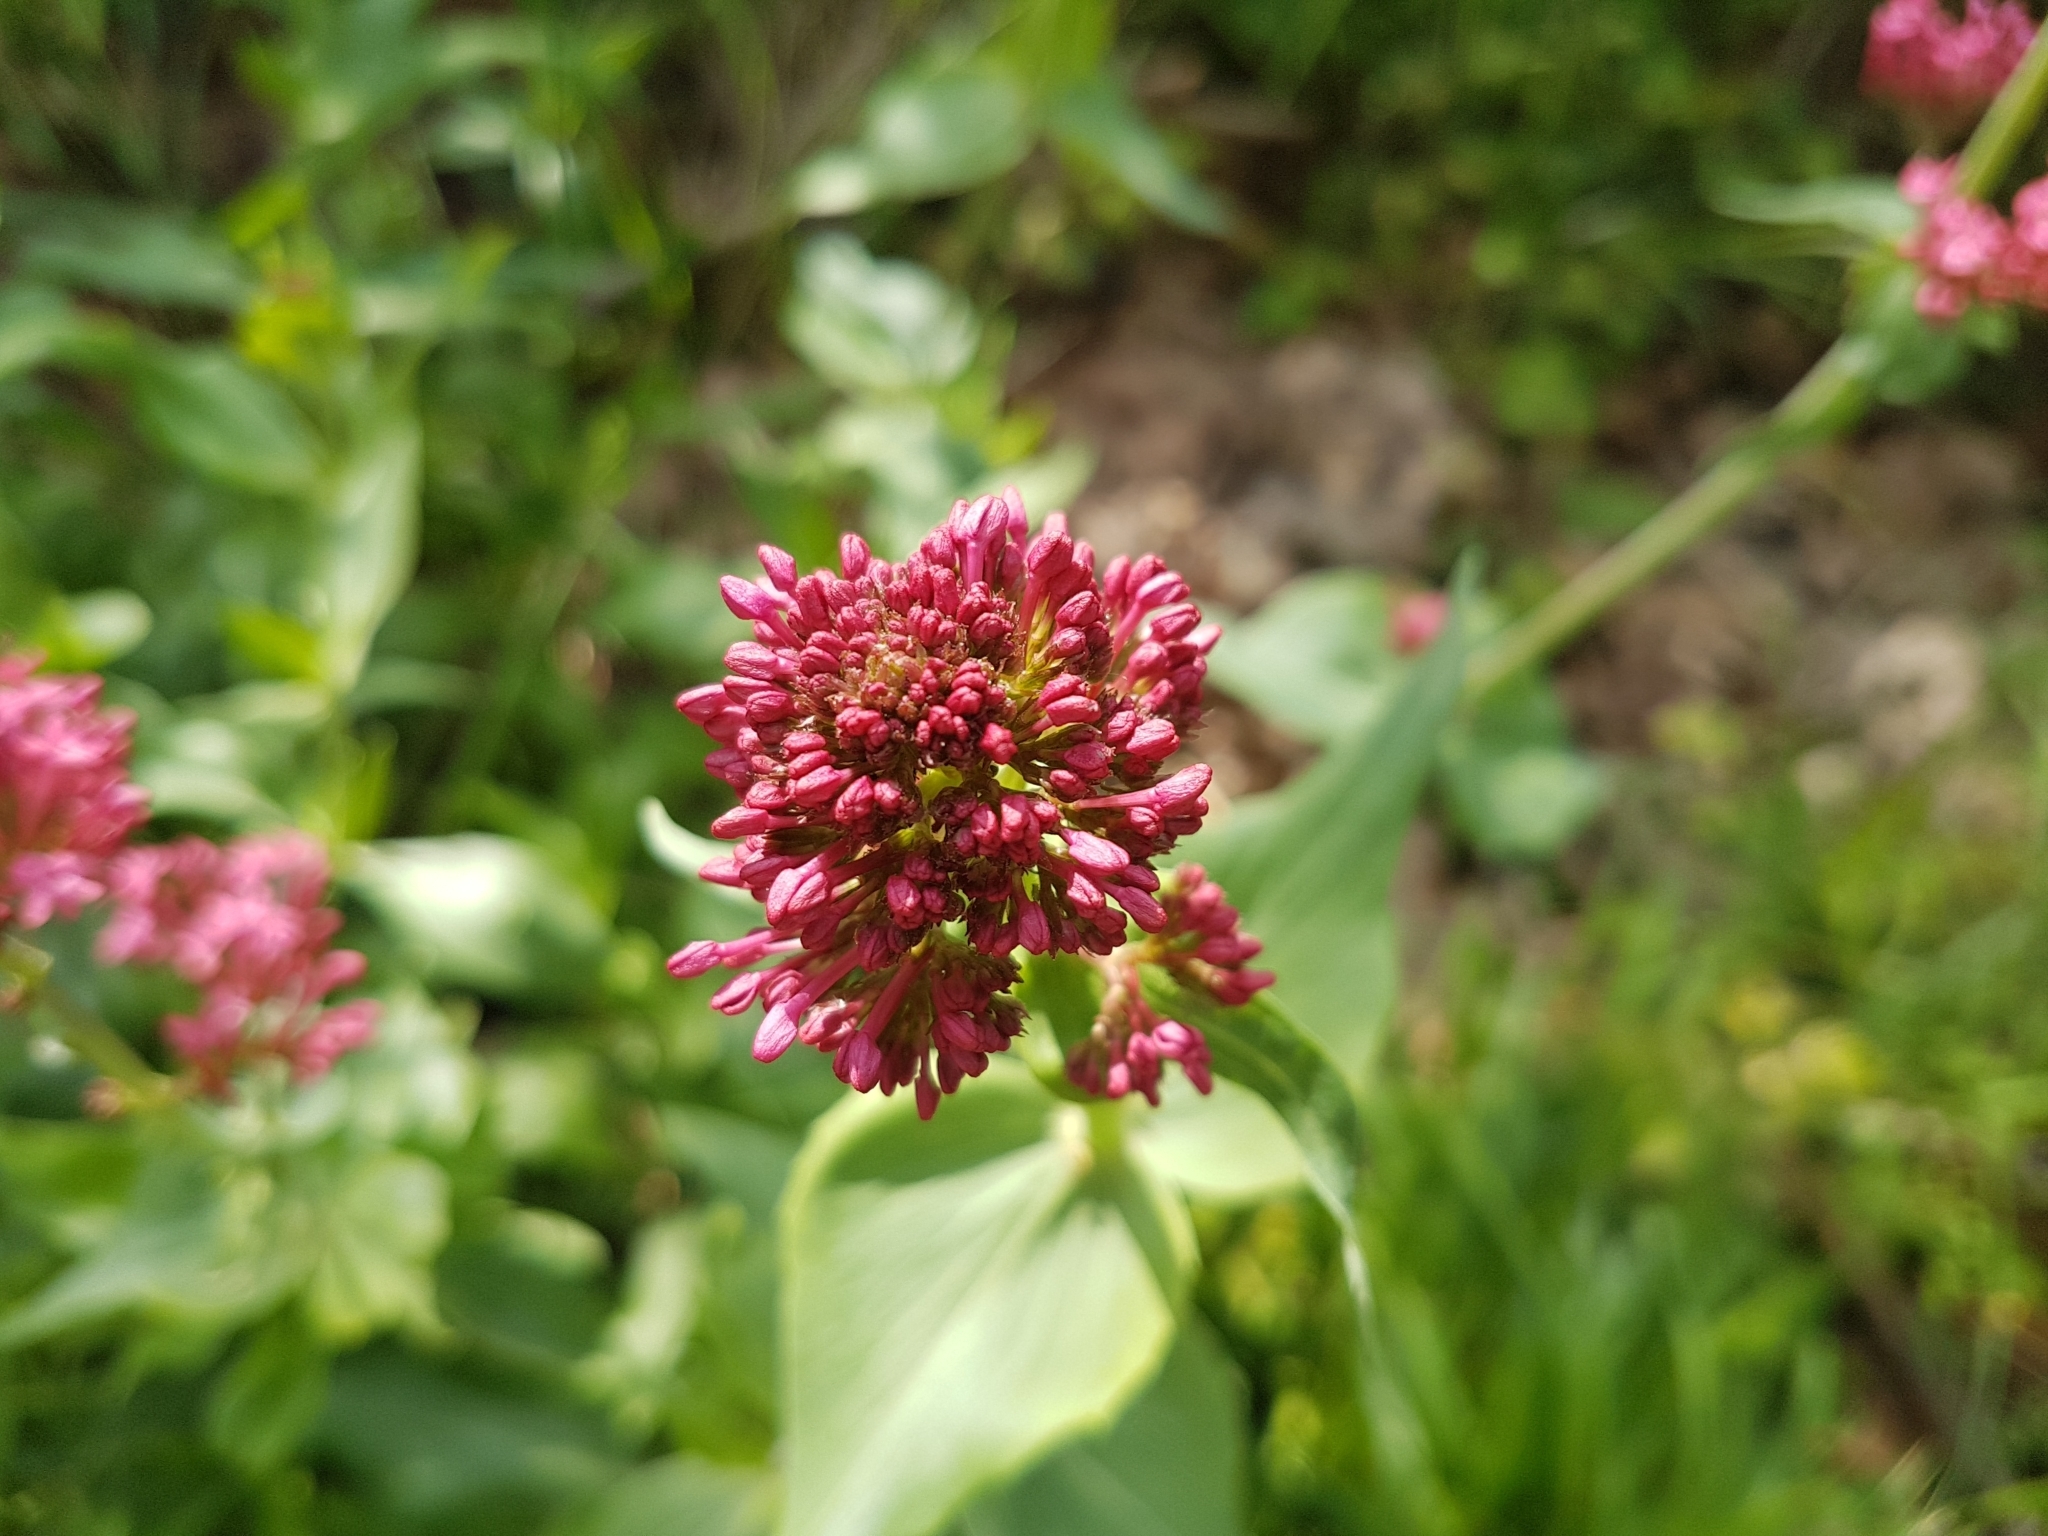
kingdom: Plantae
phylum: Tracheophyta
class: Magnoliopsida
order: Dipsacales
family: Caprifoliaceae
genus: Centranthus
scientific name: Centranthus ruber
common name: Red valerian
